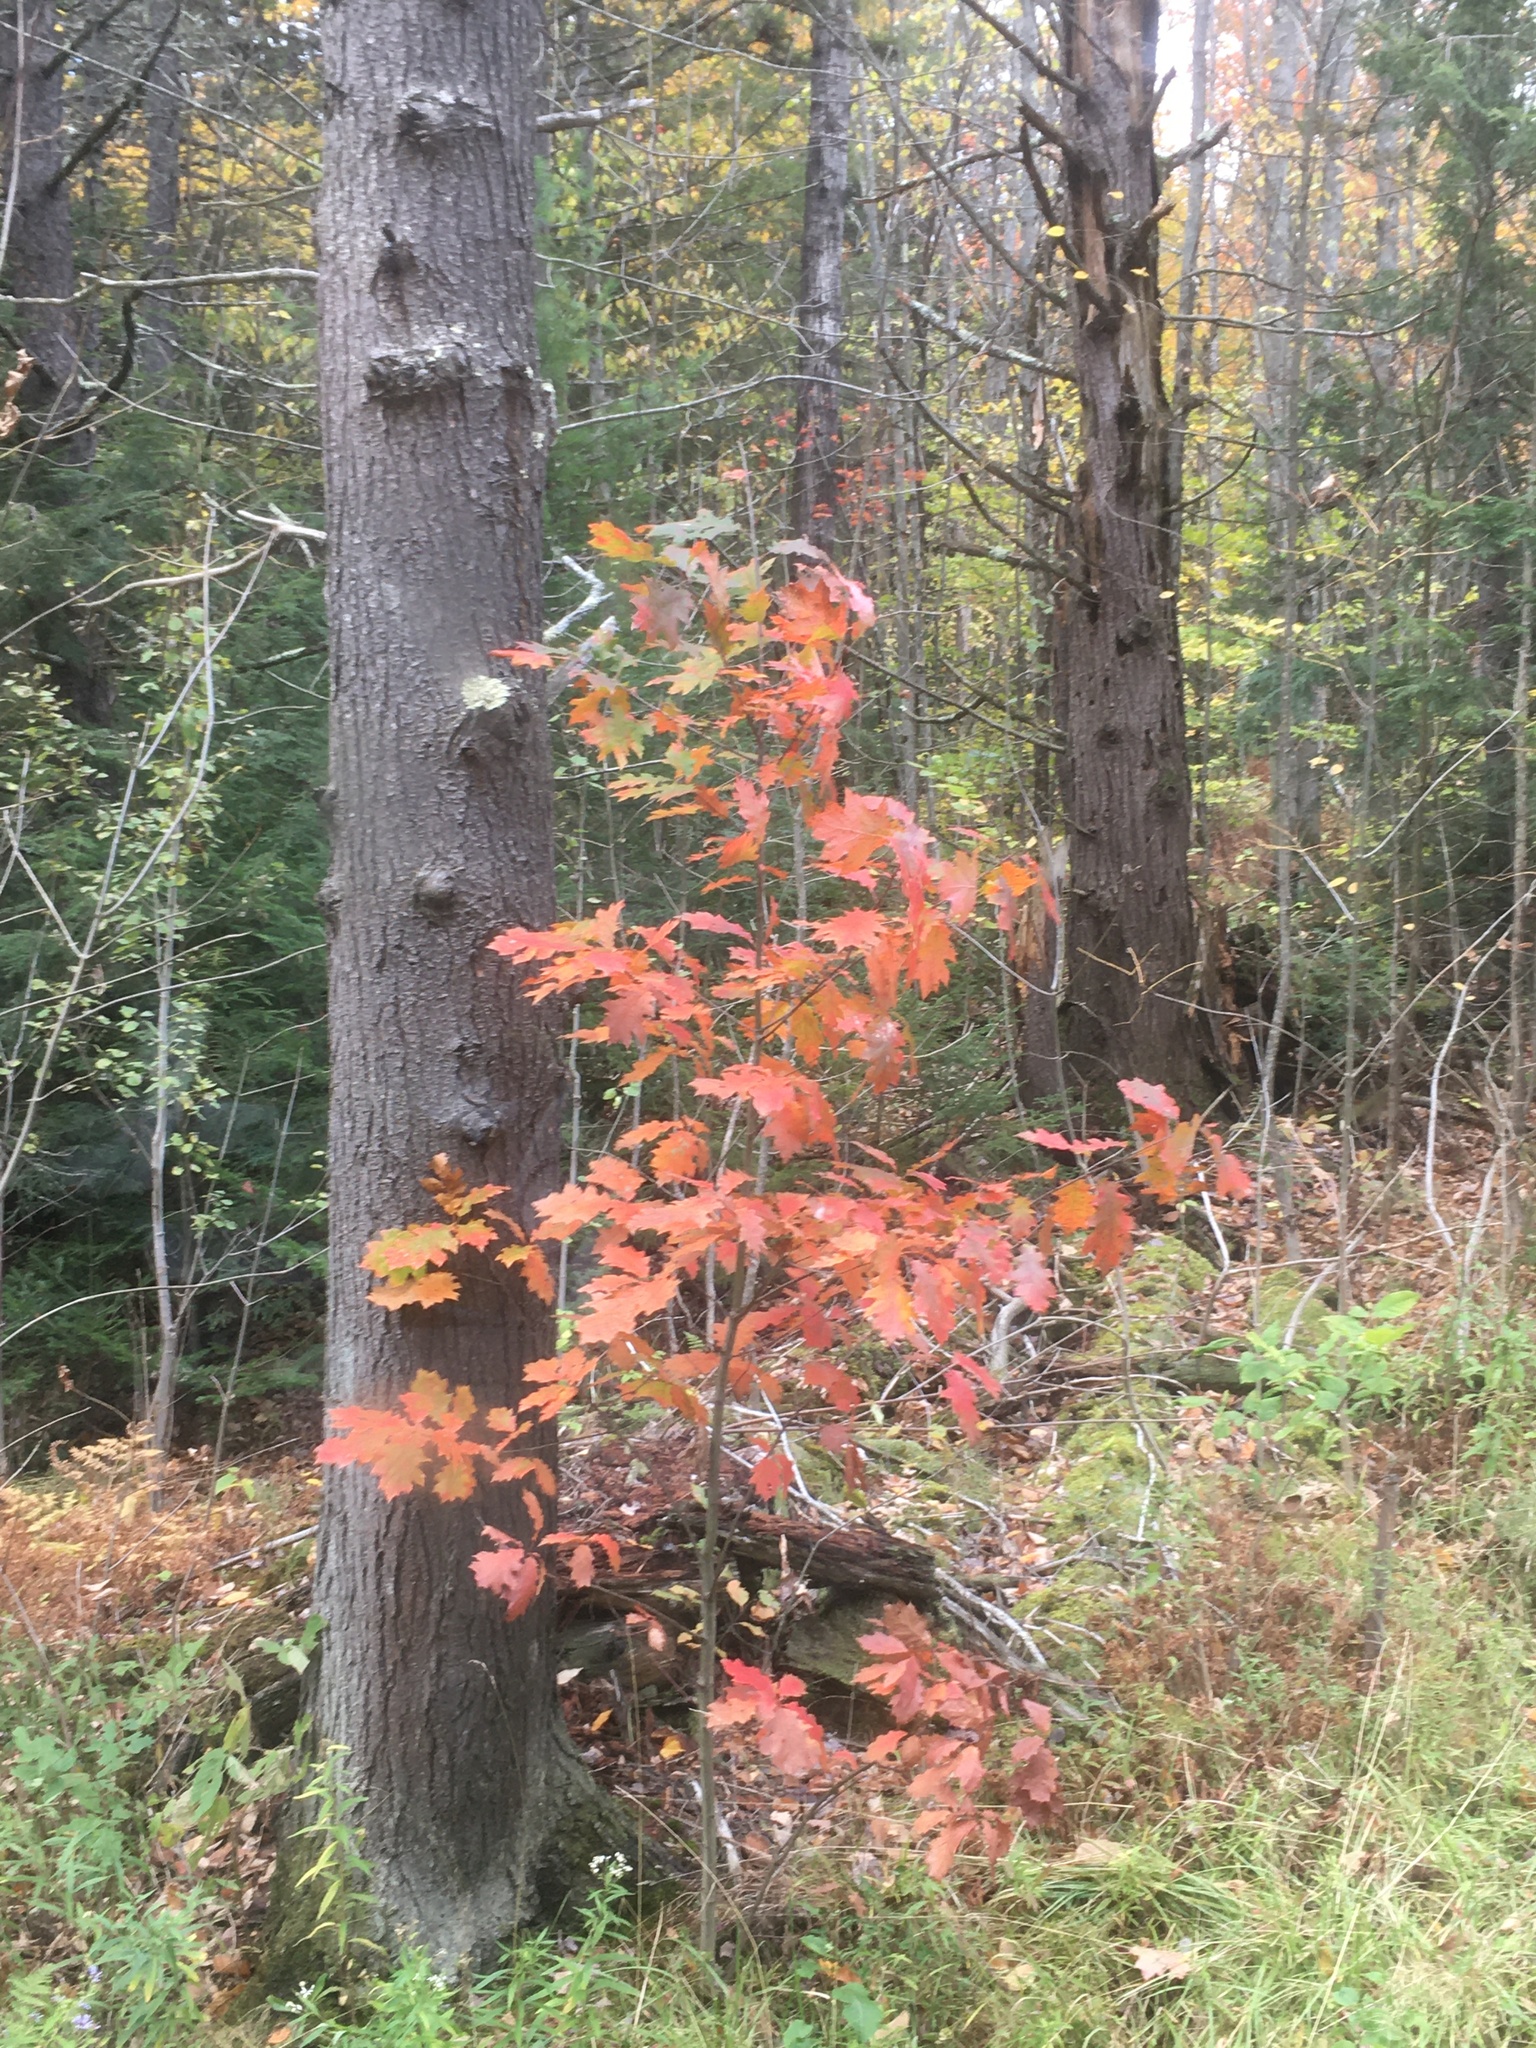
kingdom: Plantae
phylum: Tracheophyta
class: Magnoliopsida
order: Fagales
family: Fagaceae
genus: Quercus
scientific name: Quercus rubra
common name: Red oak
